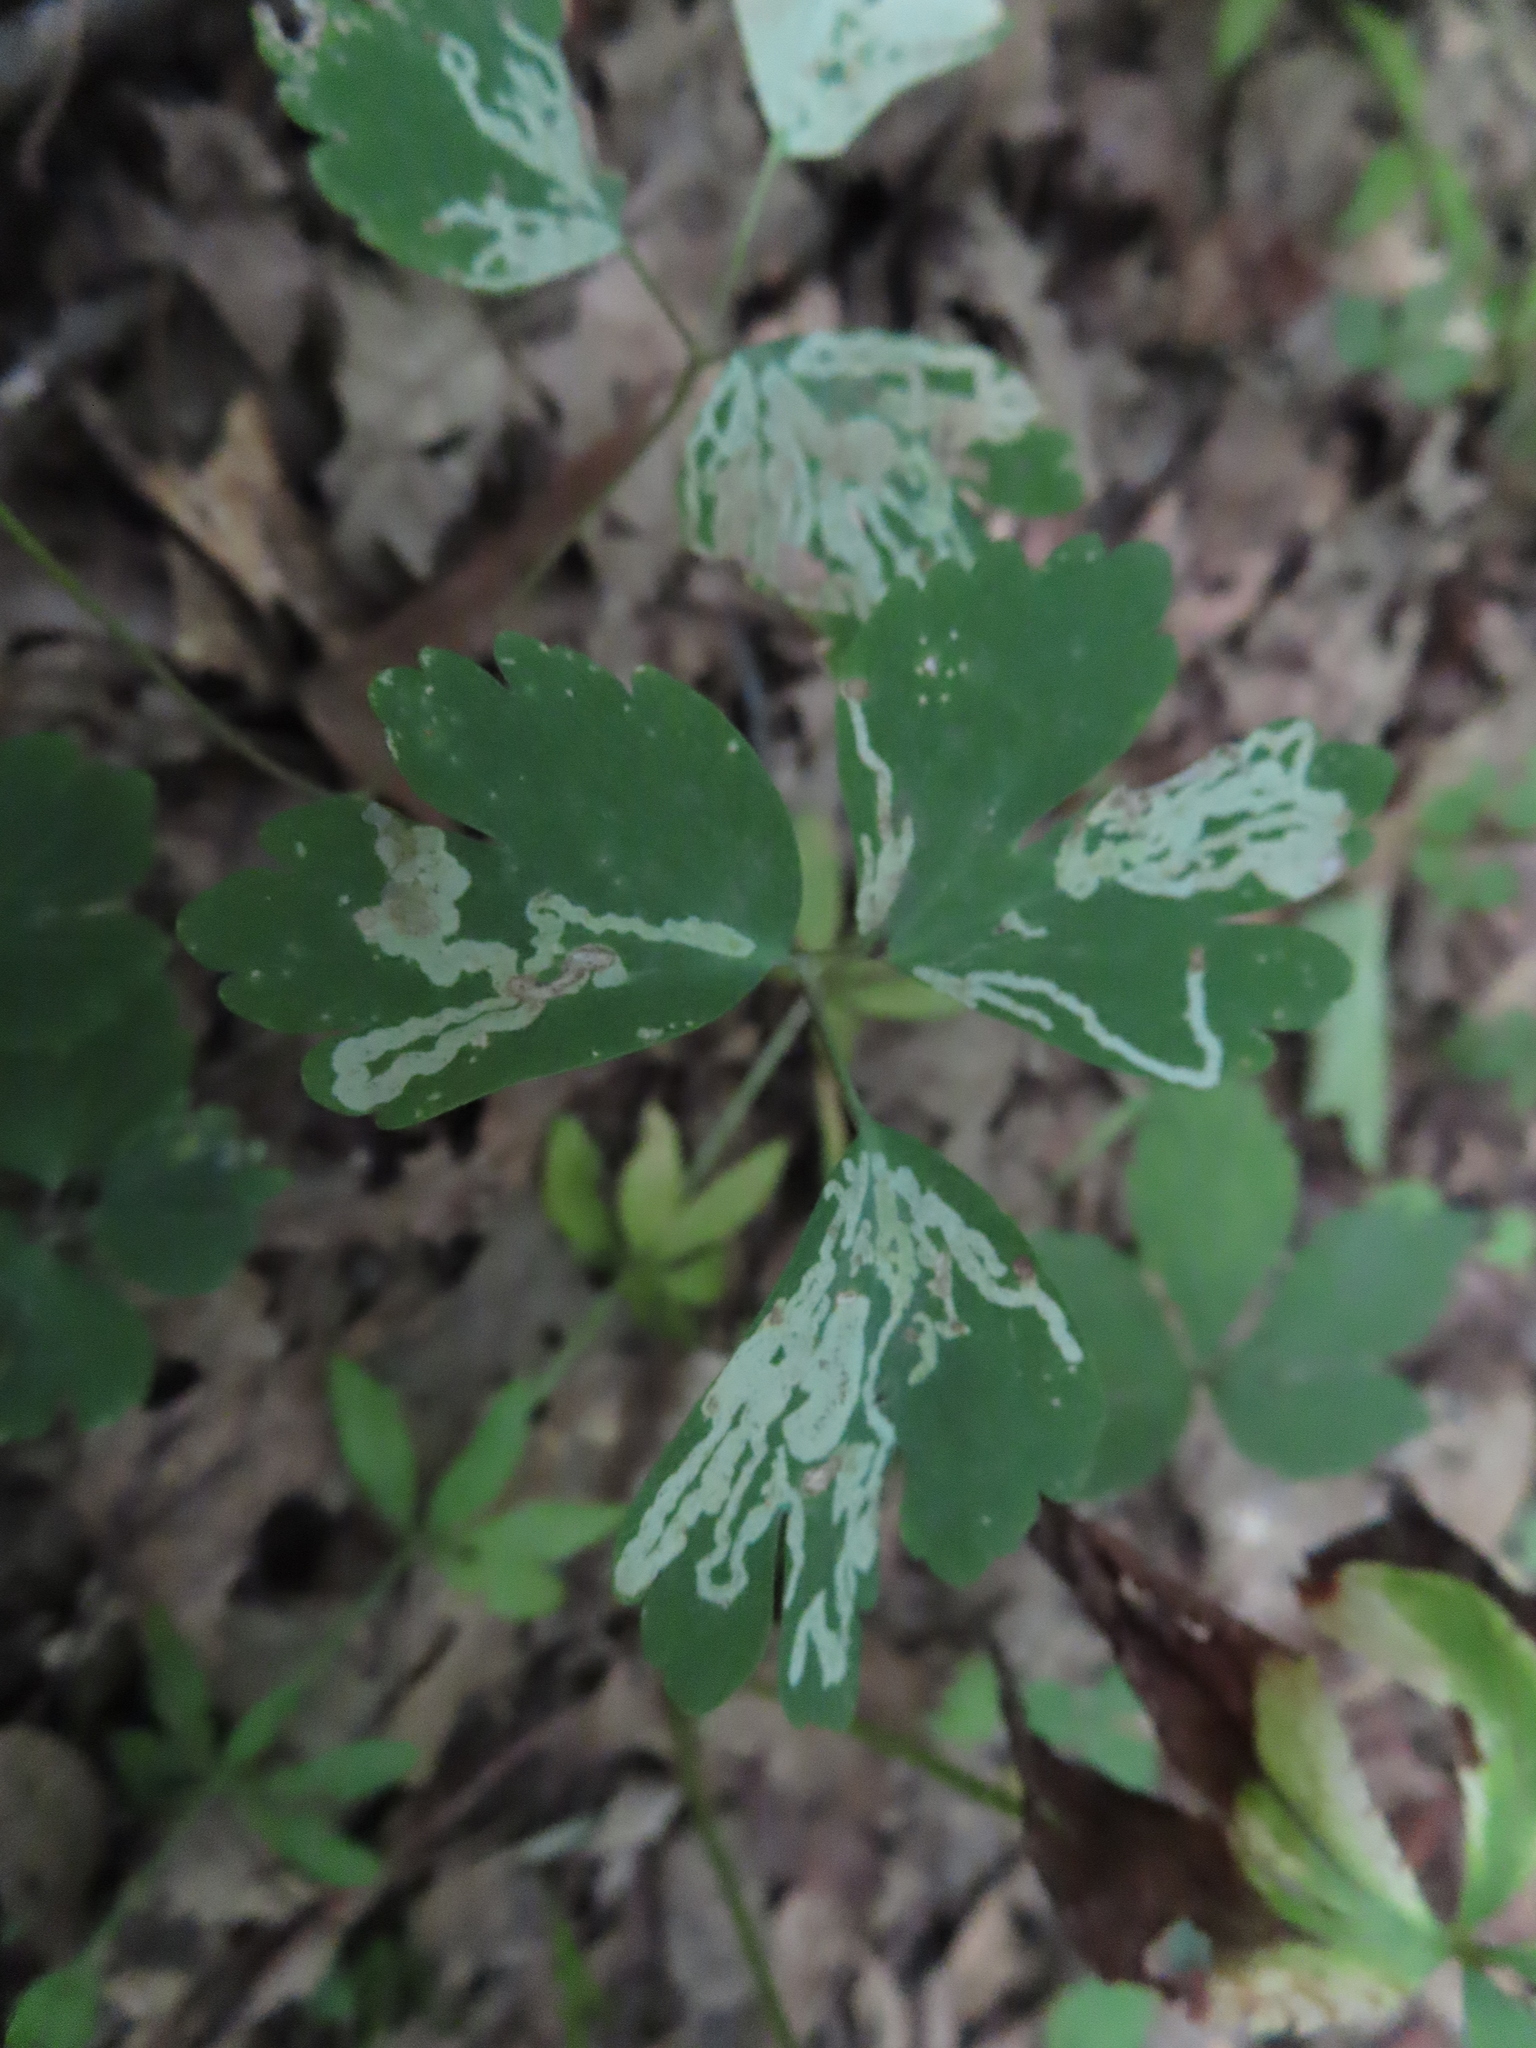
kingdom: Animalia
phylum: Arthropoda
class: Insecta
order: Diptera
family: Agromyzidae
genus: Phytomyza
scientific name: Phytomyza
